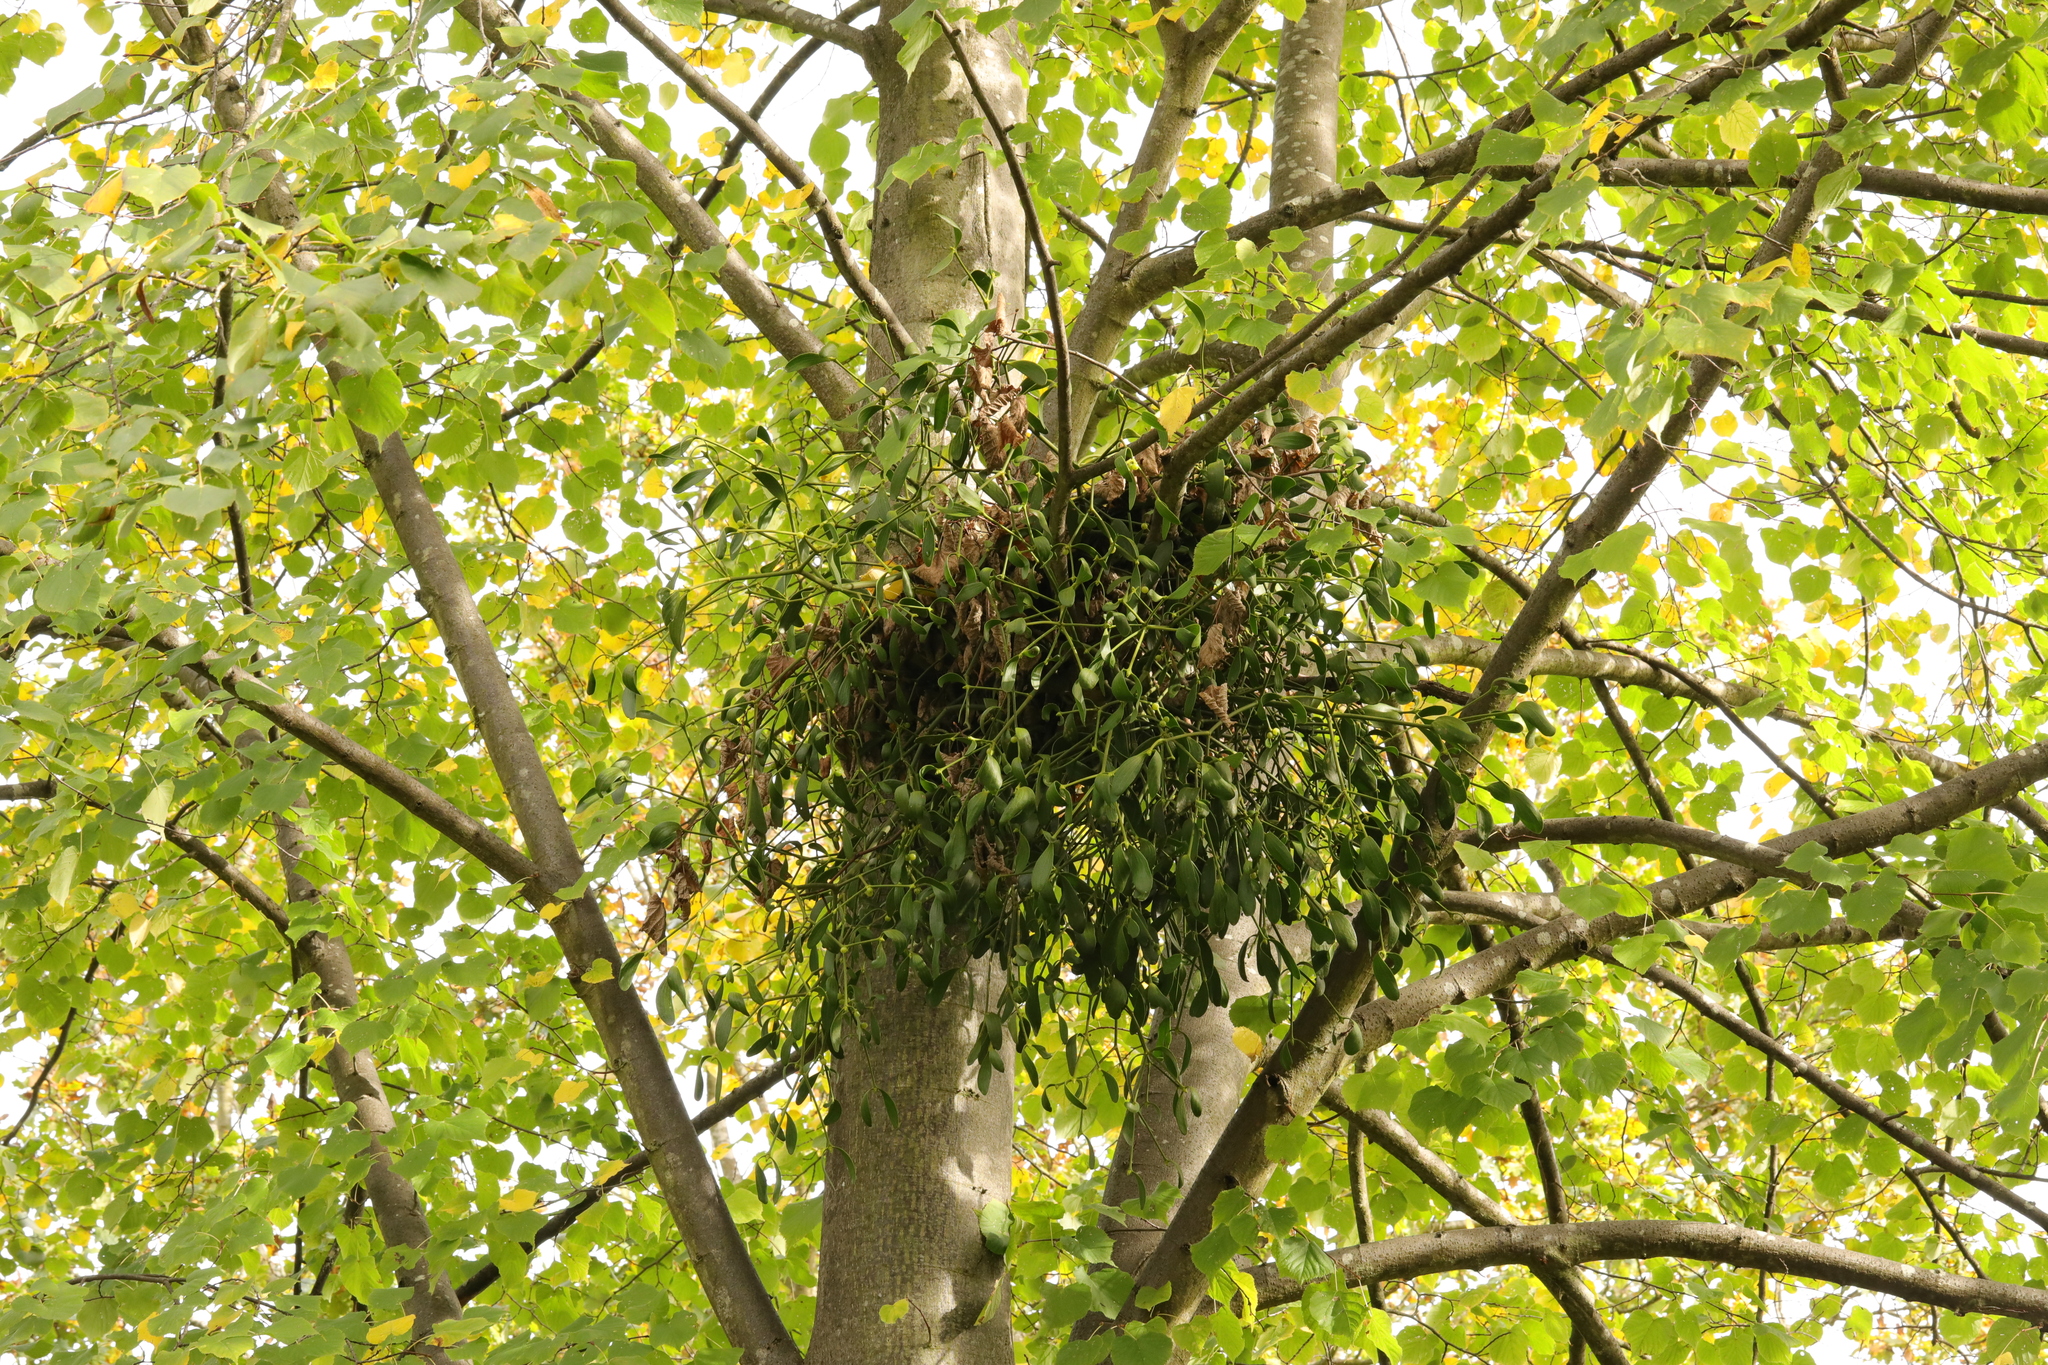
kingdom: Plantae
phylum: Tracheophyta
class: Magnoliopsida
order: Santalales
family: Viscaceae
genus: Viscum
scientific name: Viscum album
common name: Mistletoe
